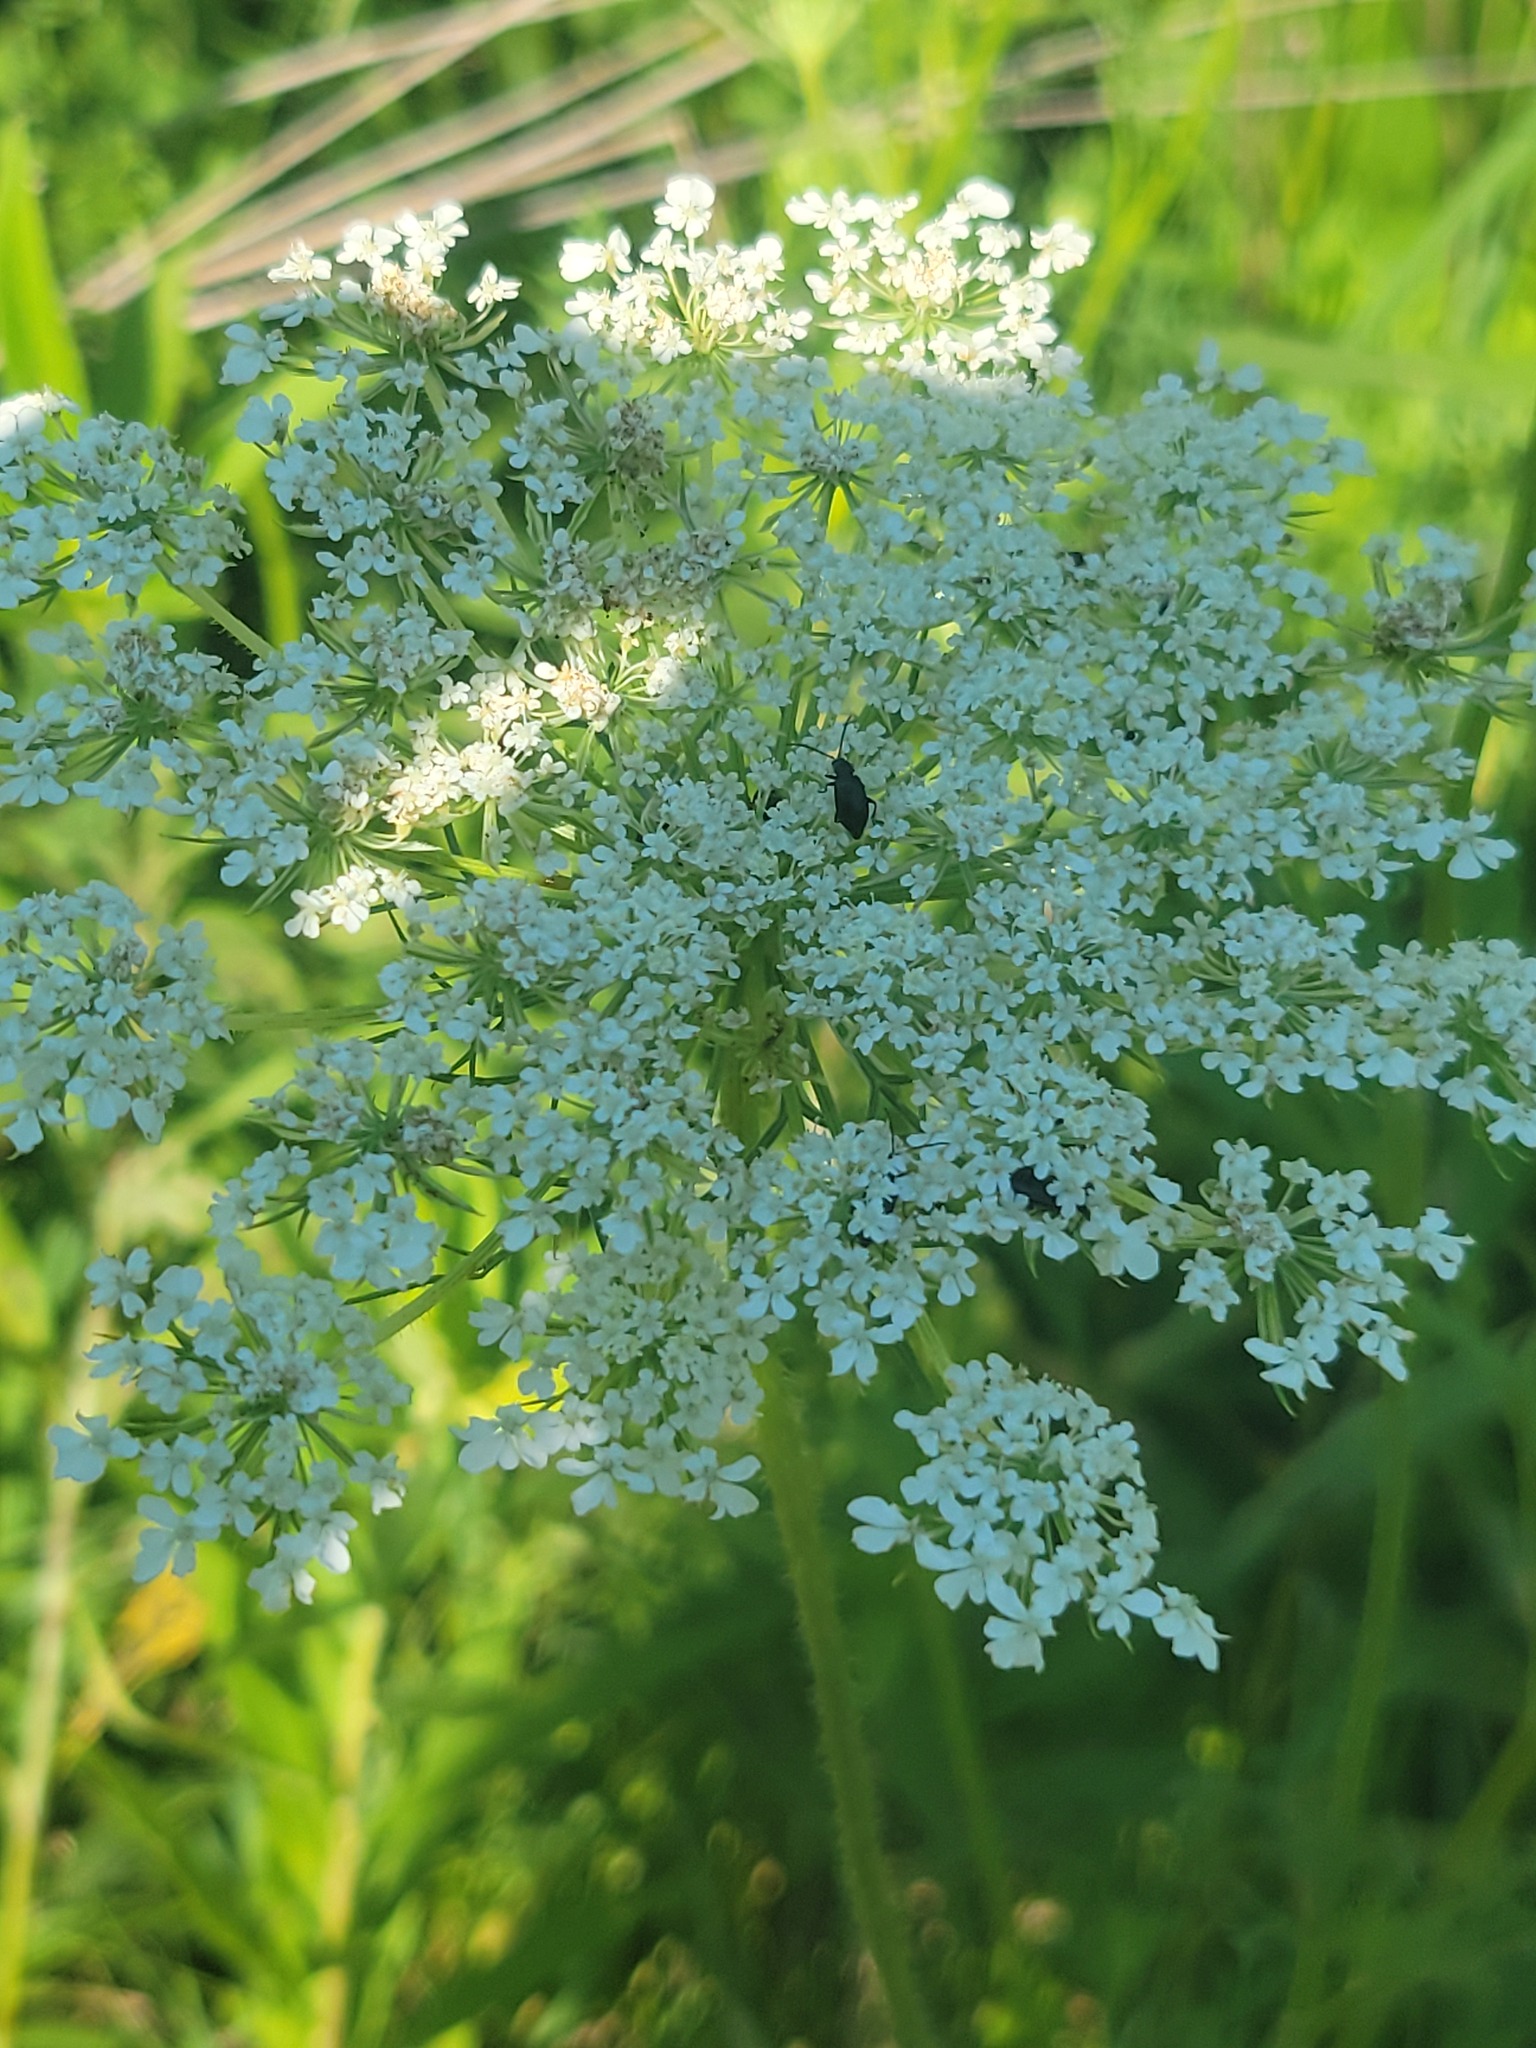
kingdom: Plantae
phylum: Tracheophyta
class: Magnoliopsida
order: Apiales
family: Apiaceae
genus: Daucus
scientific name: Daucus carota
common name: Wild carrot
